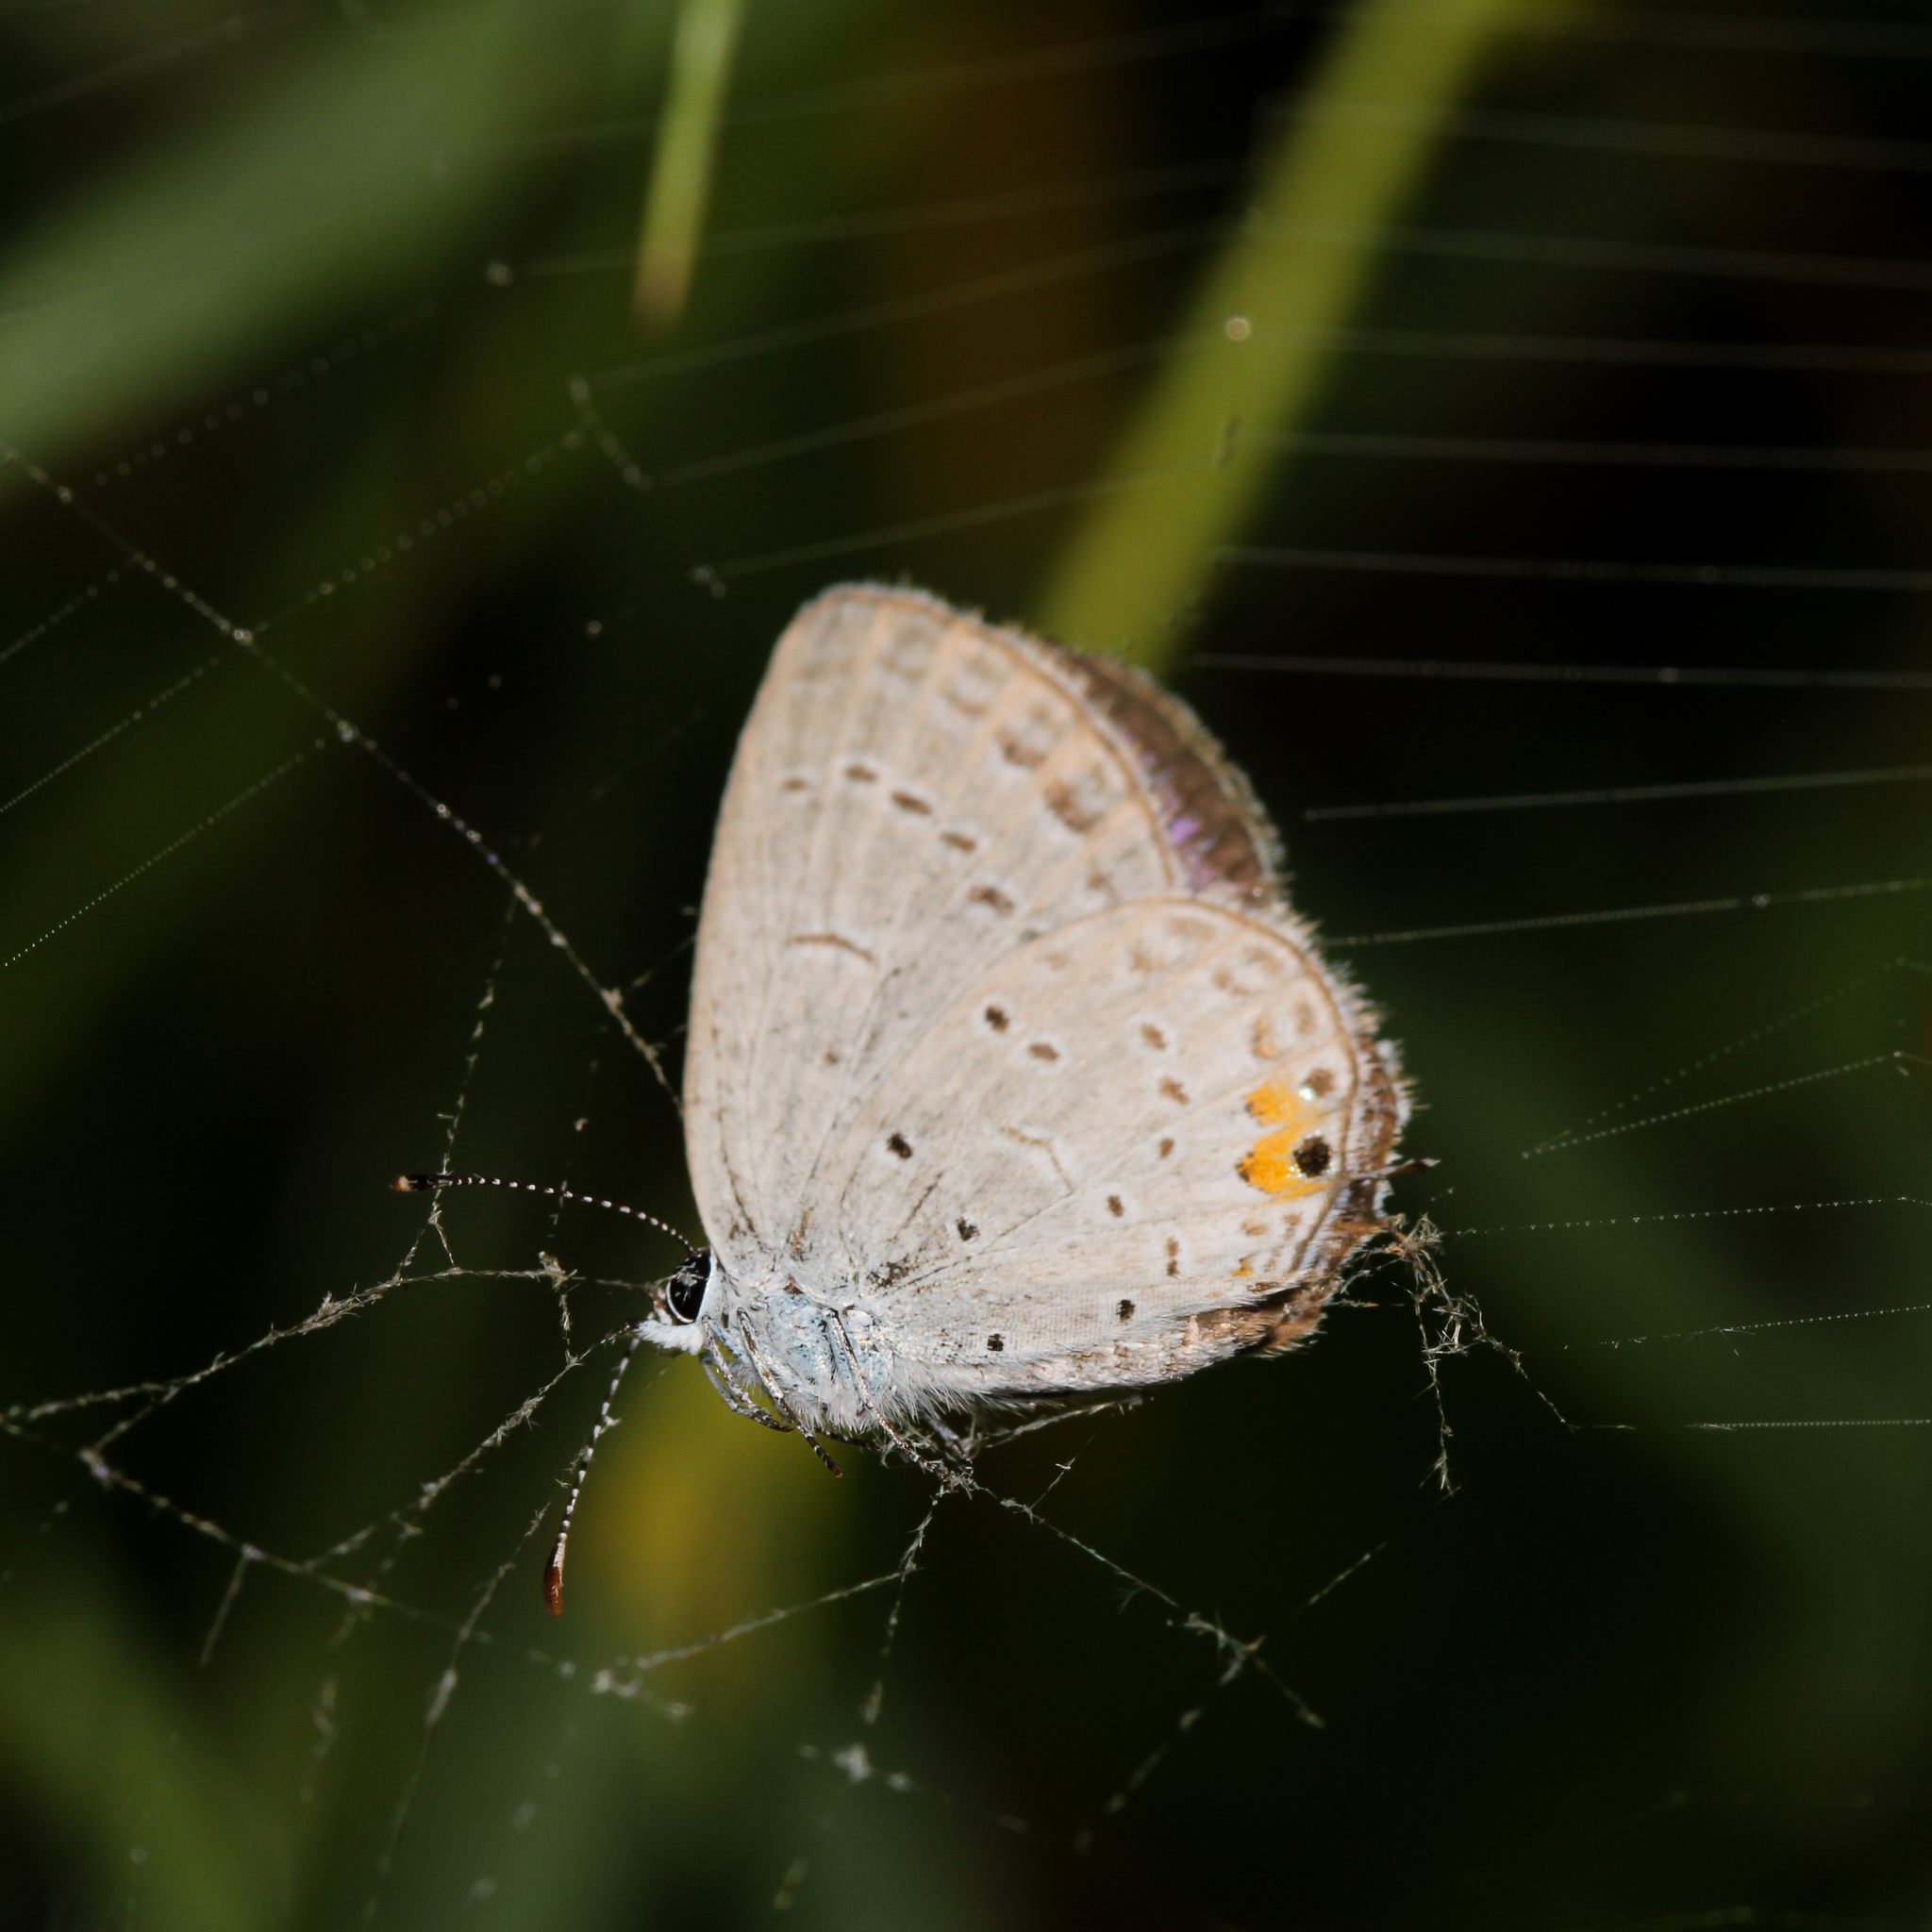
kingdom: Animalia
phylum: Arthropoda
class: Insecta
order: Lepidoptera
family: Lycaenidae
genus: Elkalyce
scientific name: Elkalyce comyntas
